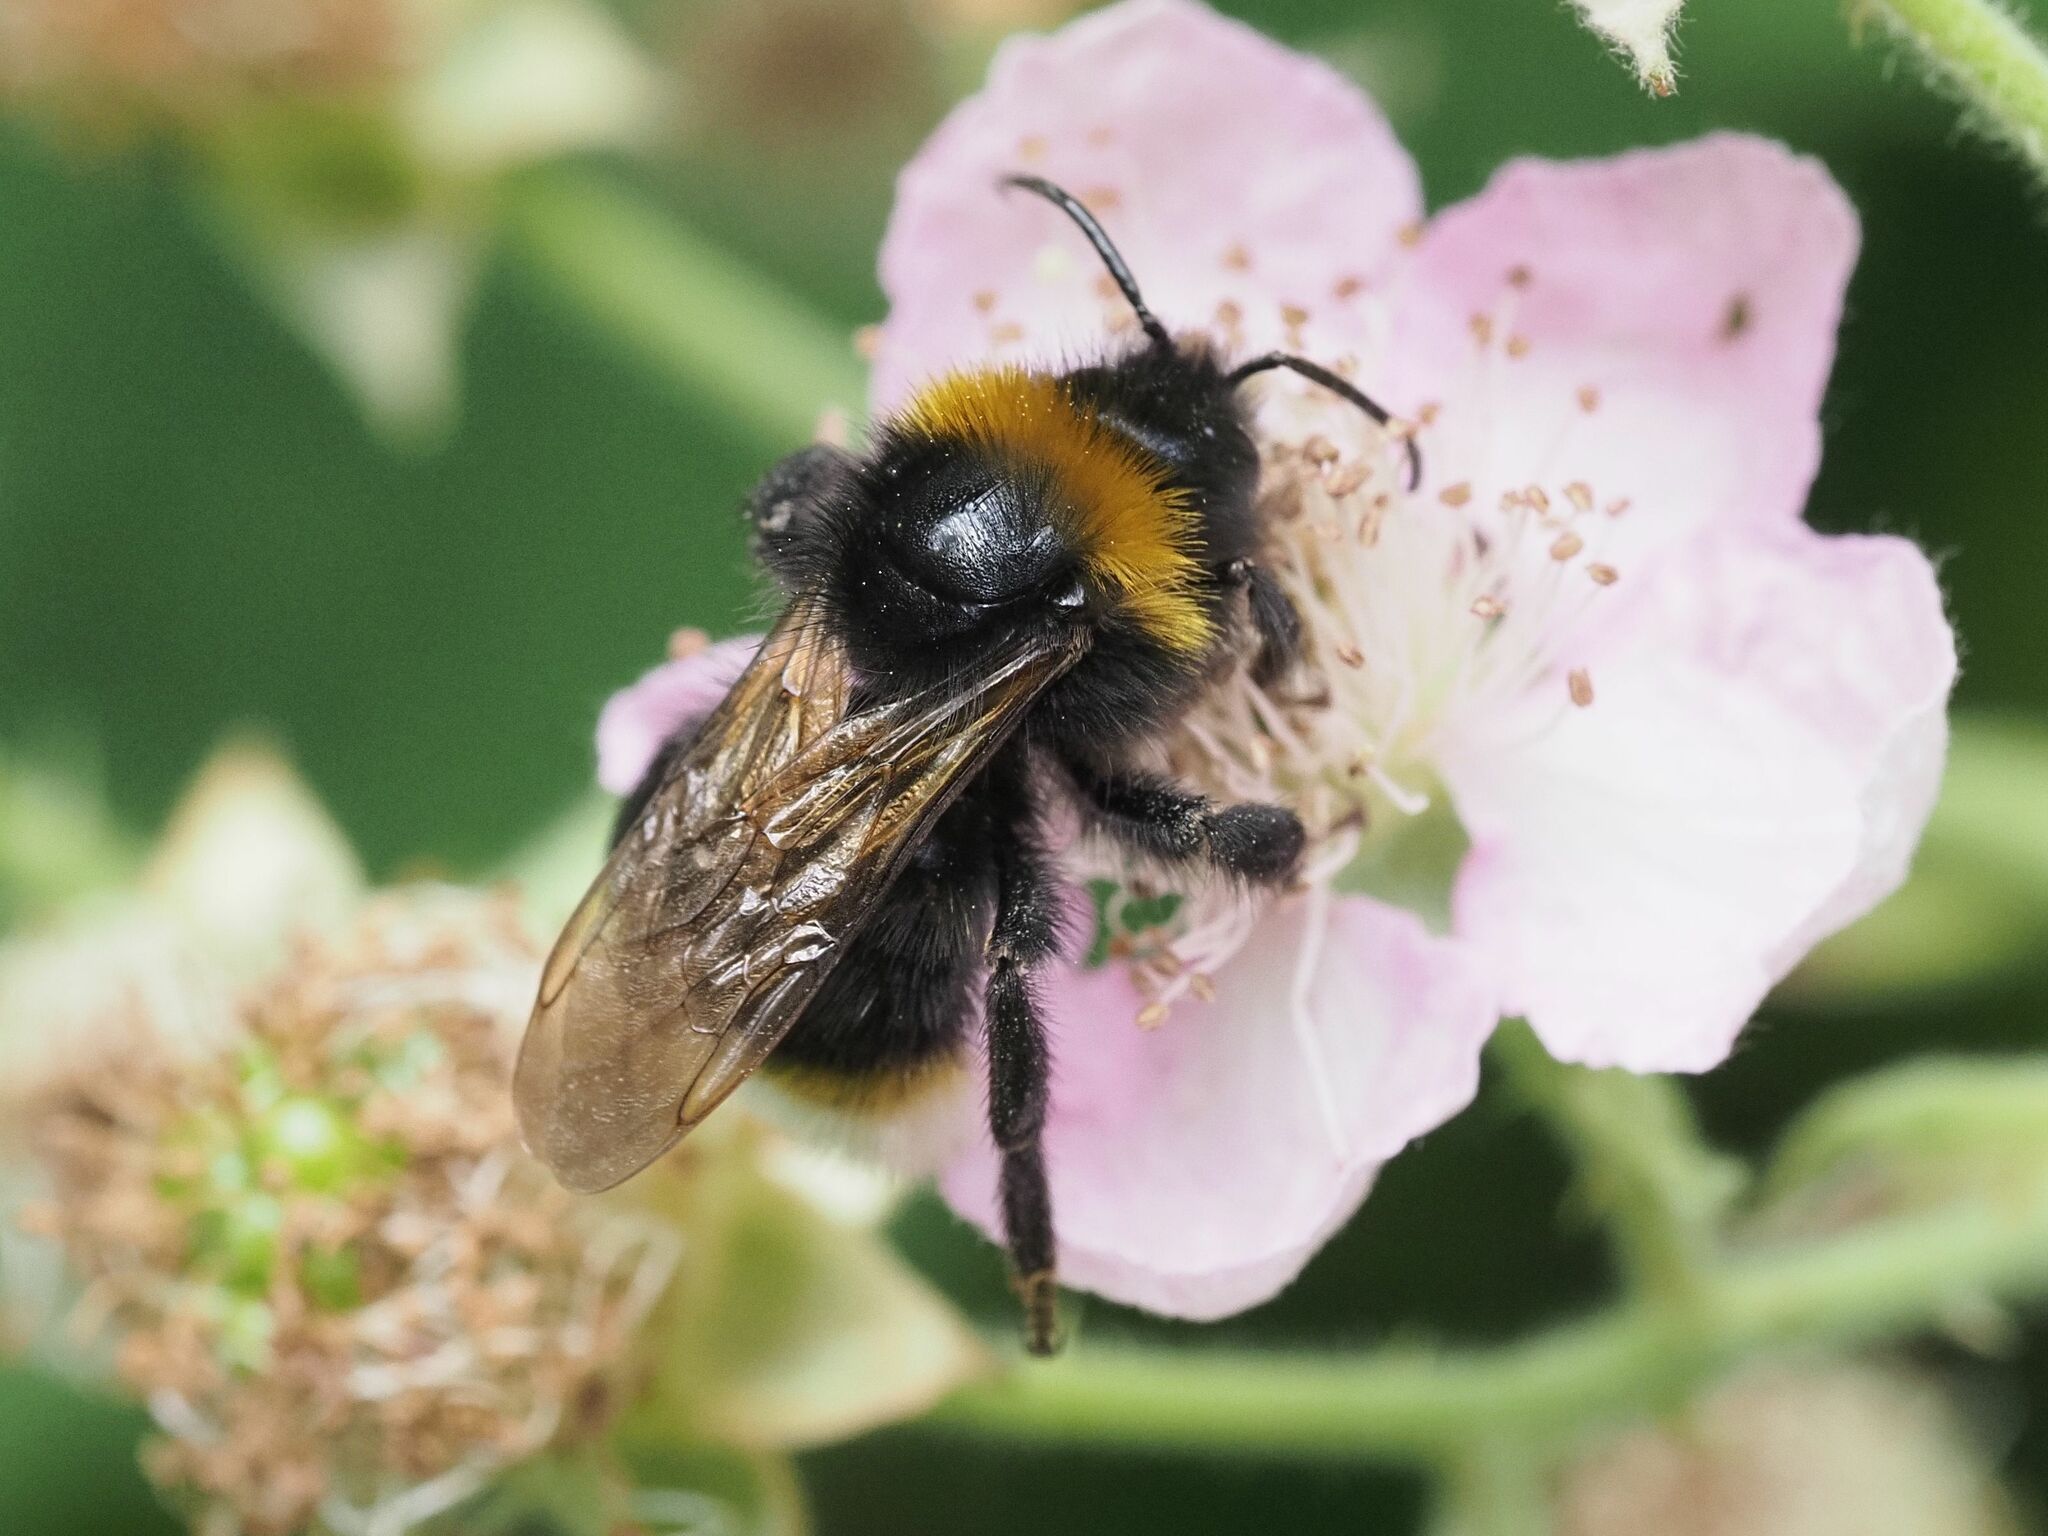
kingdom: Animalia
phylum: Arthropoda
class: Insecta
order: Hymenoptera
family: Apidae
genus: Bombus
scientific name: Bombus vestalis
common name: Vestal cuckoo bee
